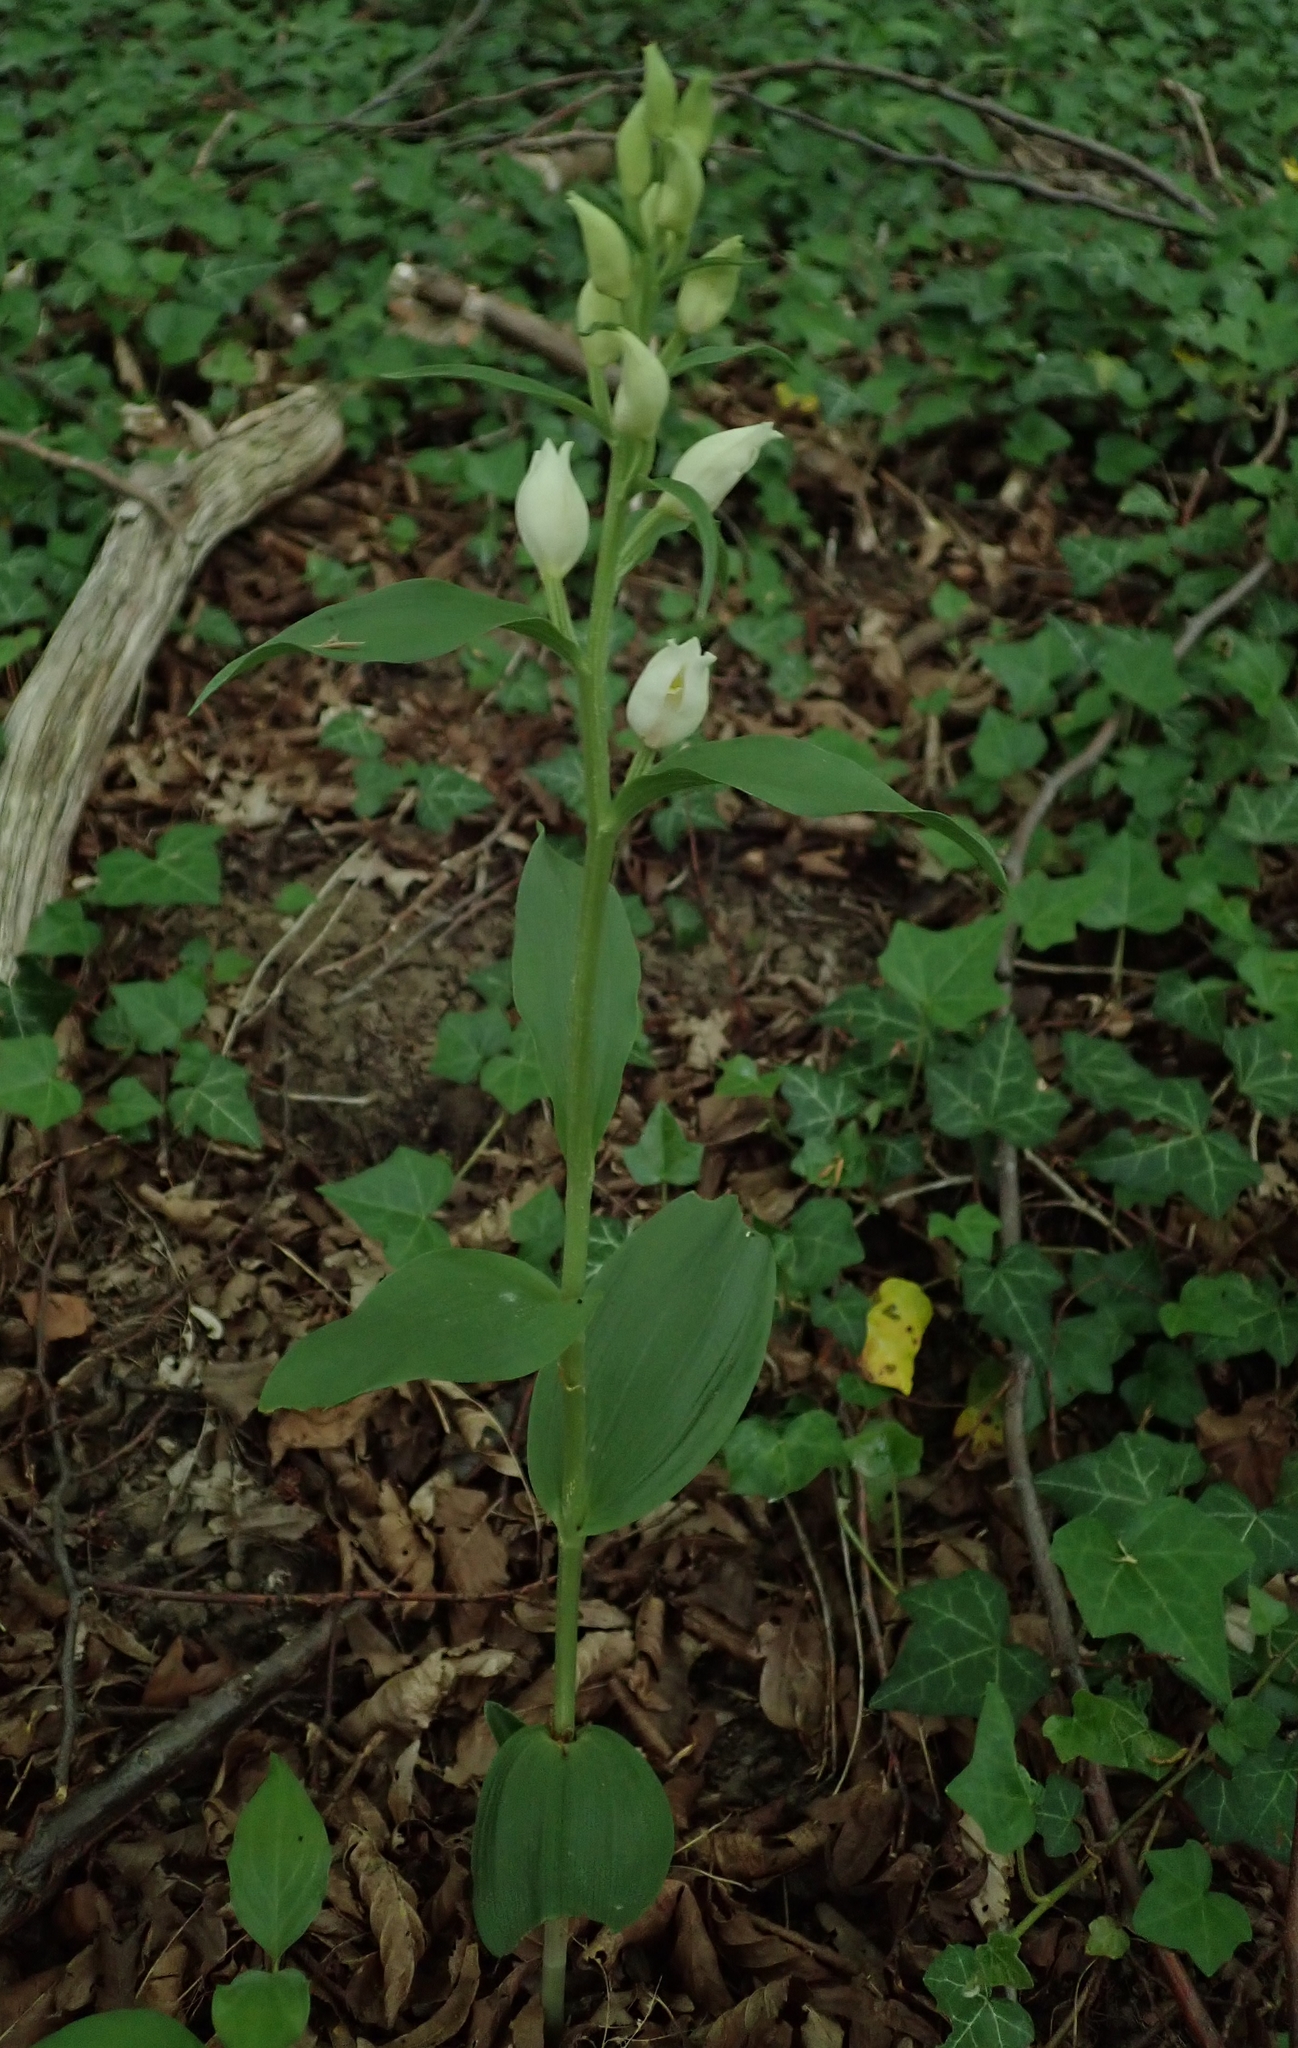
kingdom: Plantae
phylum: Tracheophyta
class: Liliopsida
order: Asparagales
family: Orchidaceae
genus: Cephalanthera
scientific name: Cephalanthera damasonium
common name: White helleborine
